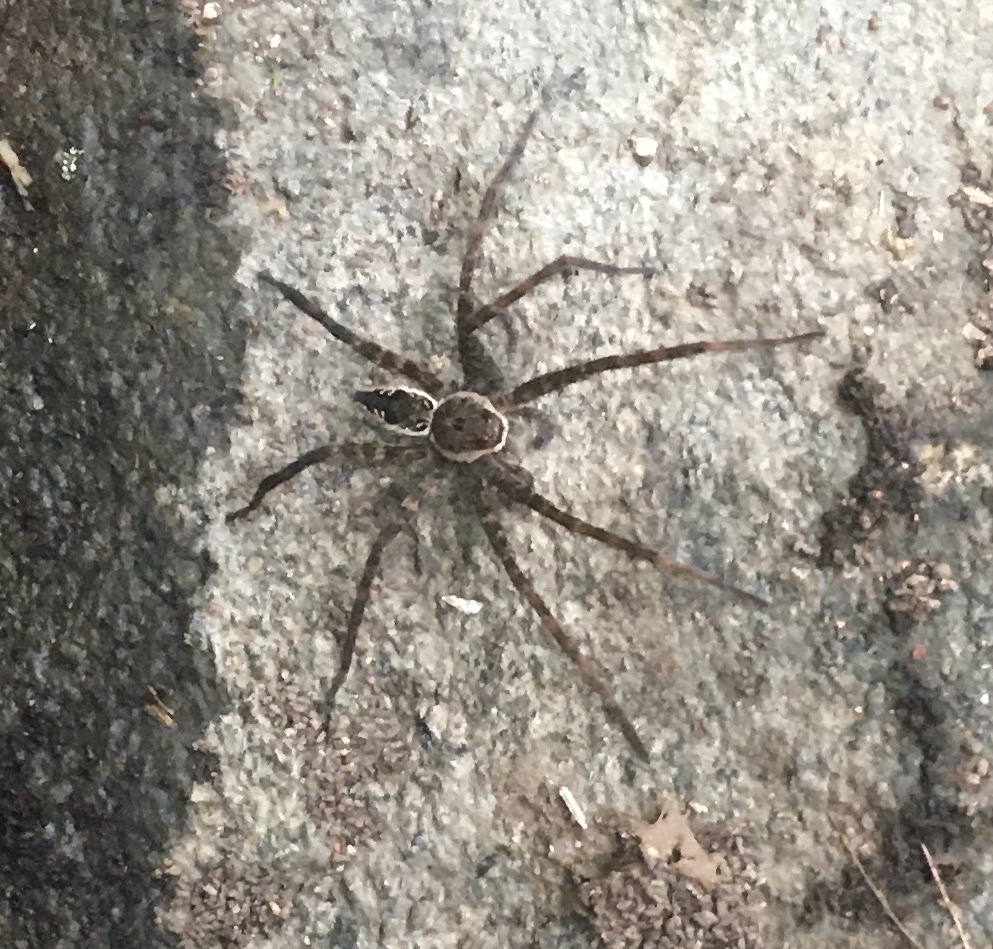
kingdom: Animalia
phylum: Arthropoda
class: Arachnida
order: Araneae
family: Pisauridae
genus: Dolomedes
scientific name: Dolomedes vittatus
